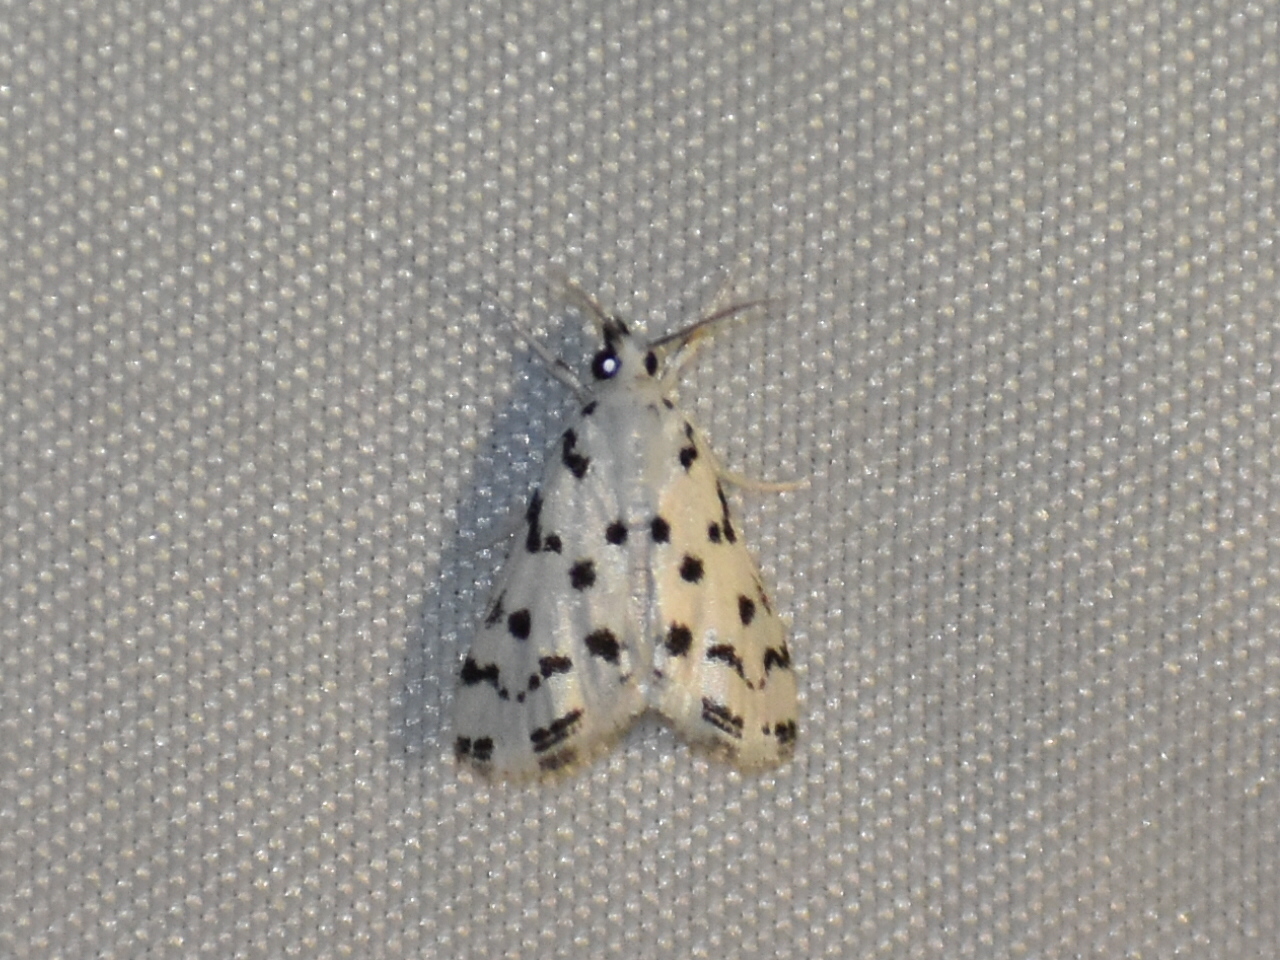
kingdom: Animalia
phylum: Arthropoda
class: Insecta
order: Lepidoptera
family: Crambidae
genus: Eustixia
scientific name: Eustixia pupula
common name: American cabbage pearl
